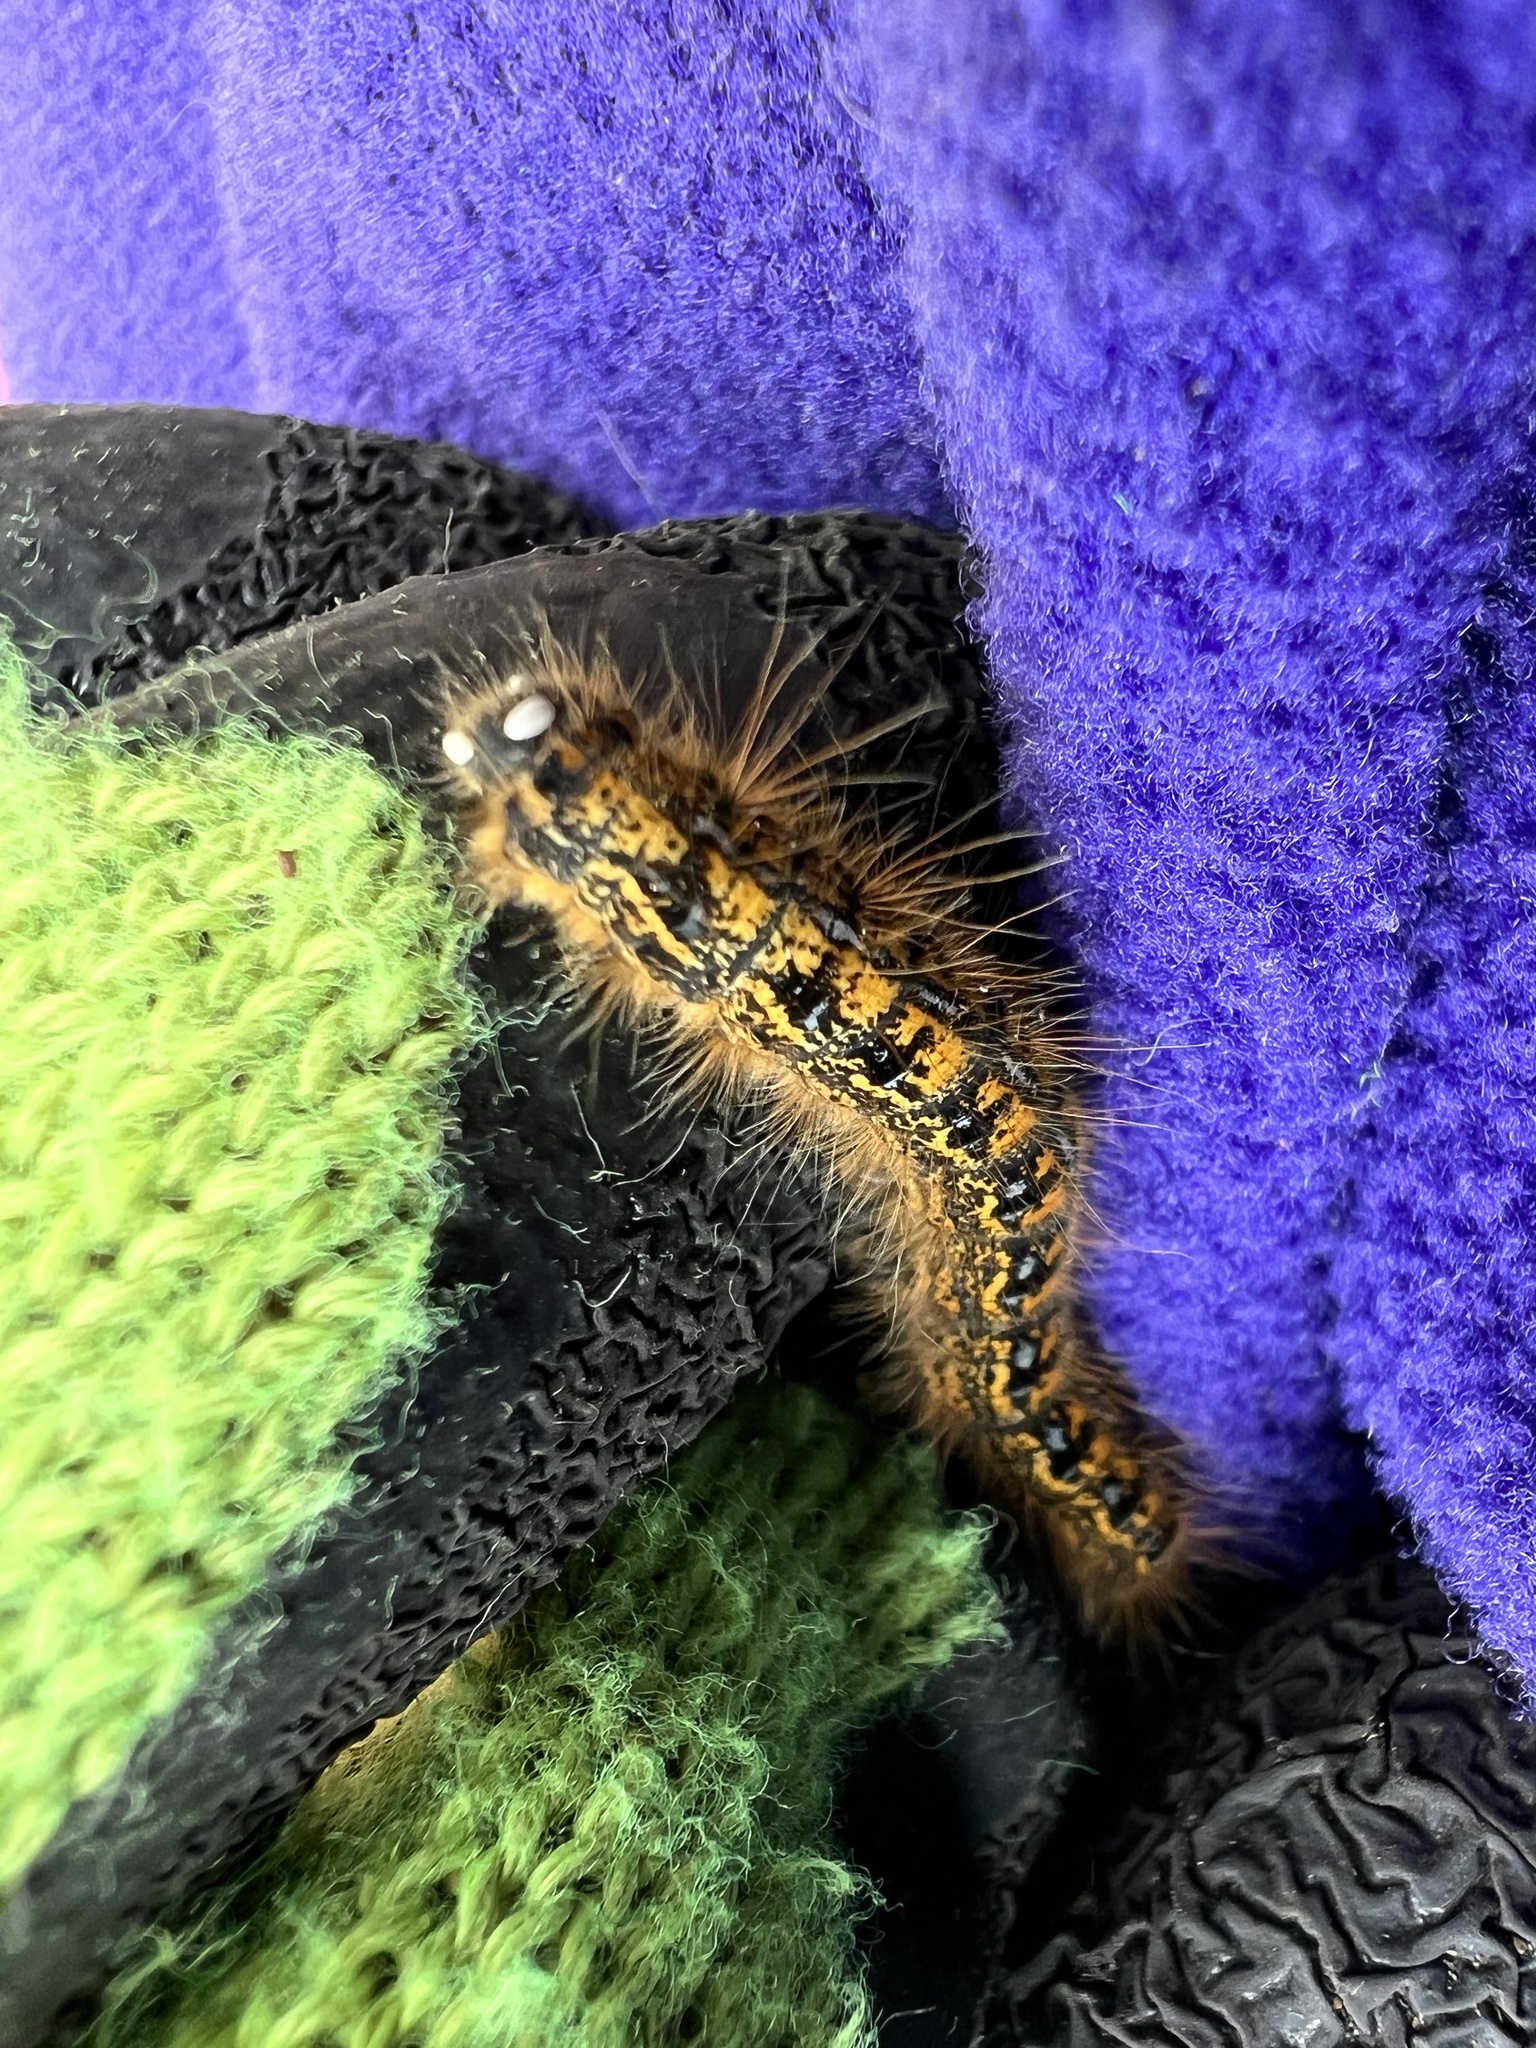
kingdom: Animalia
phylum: Arthropoda
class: Insecta
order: Lepidoptera
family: Lasiocampidae
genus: Malacosoma
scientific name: Malacosoma californica
